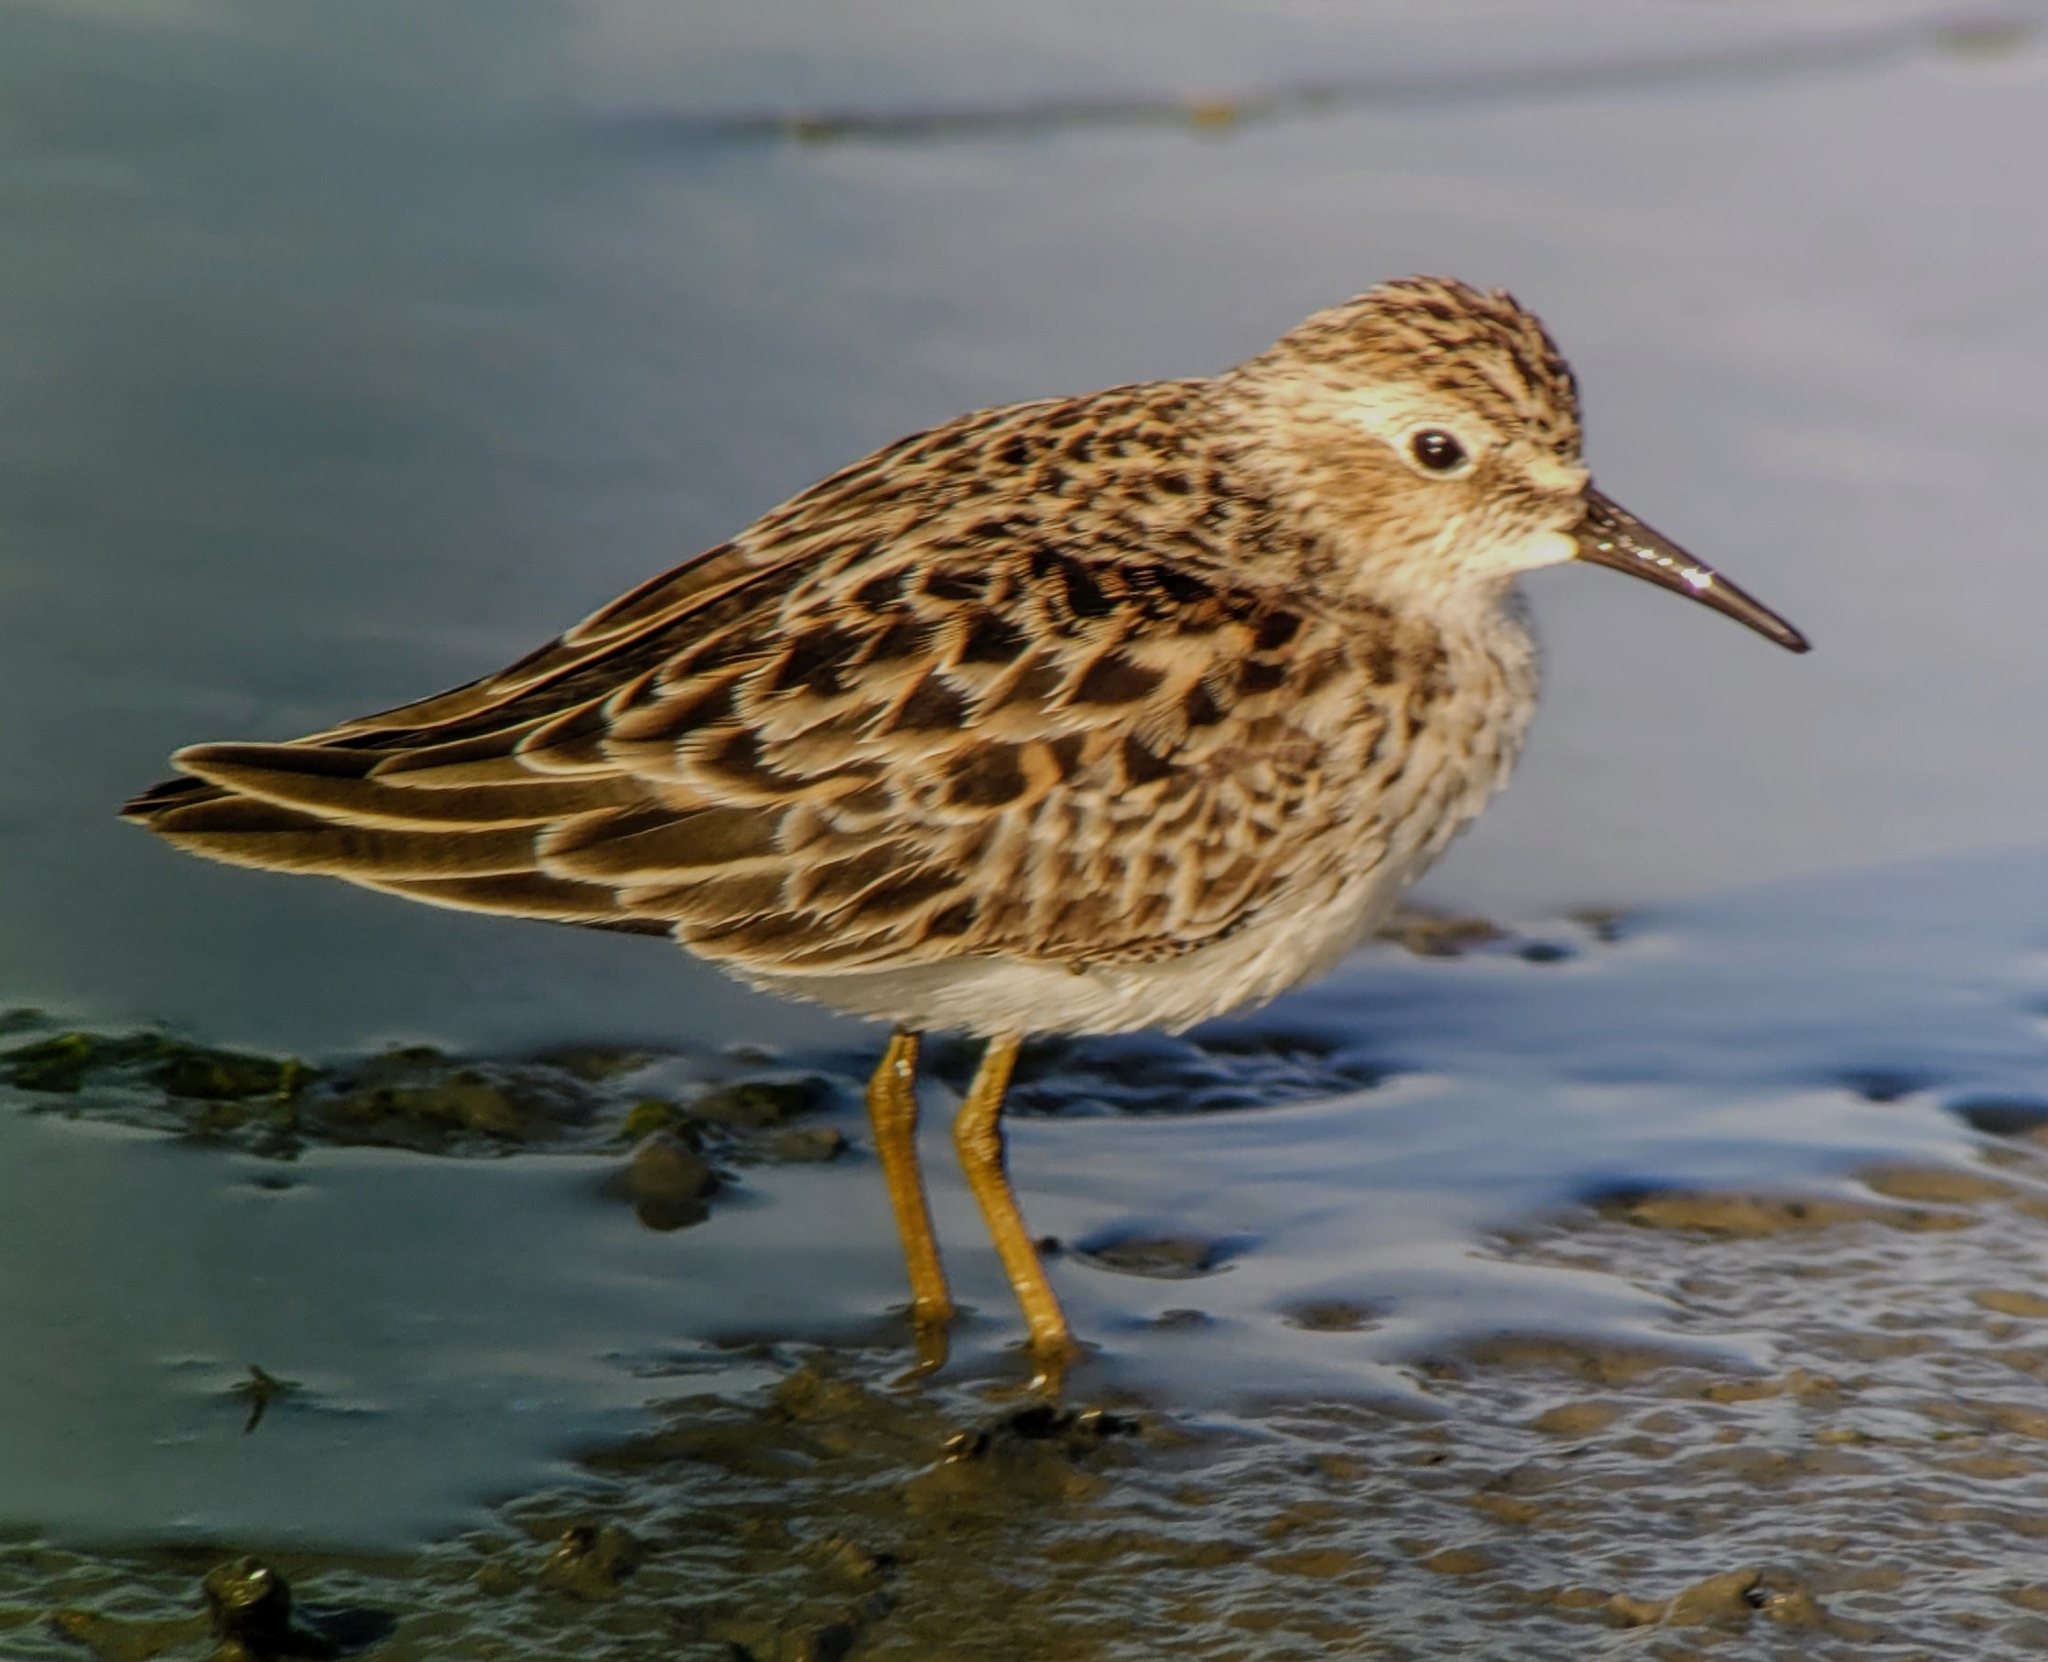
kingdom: Animalia
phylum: Chordata
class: Aves
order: Charadriiformes
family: Scolopacidae
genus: Calidris
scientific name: Calidris minutilla
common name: Least sandpiper
